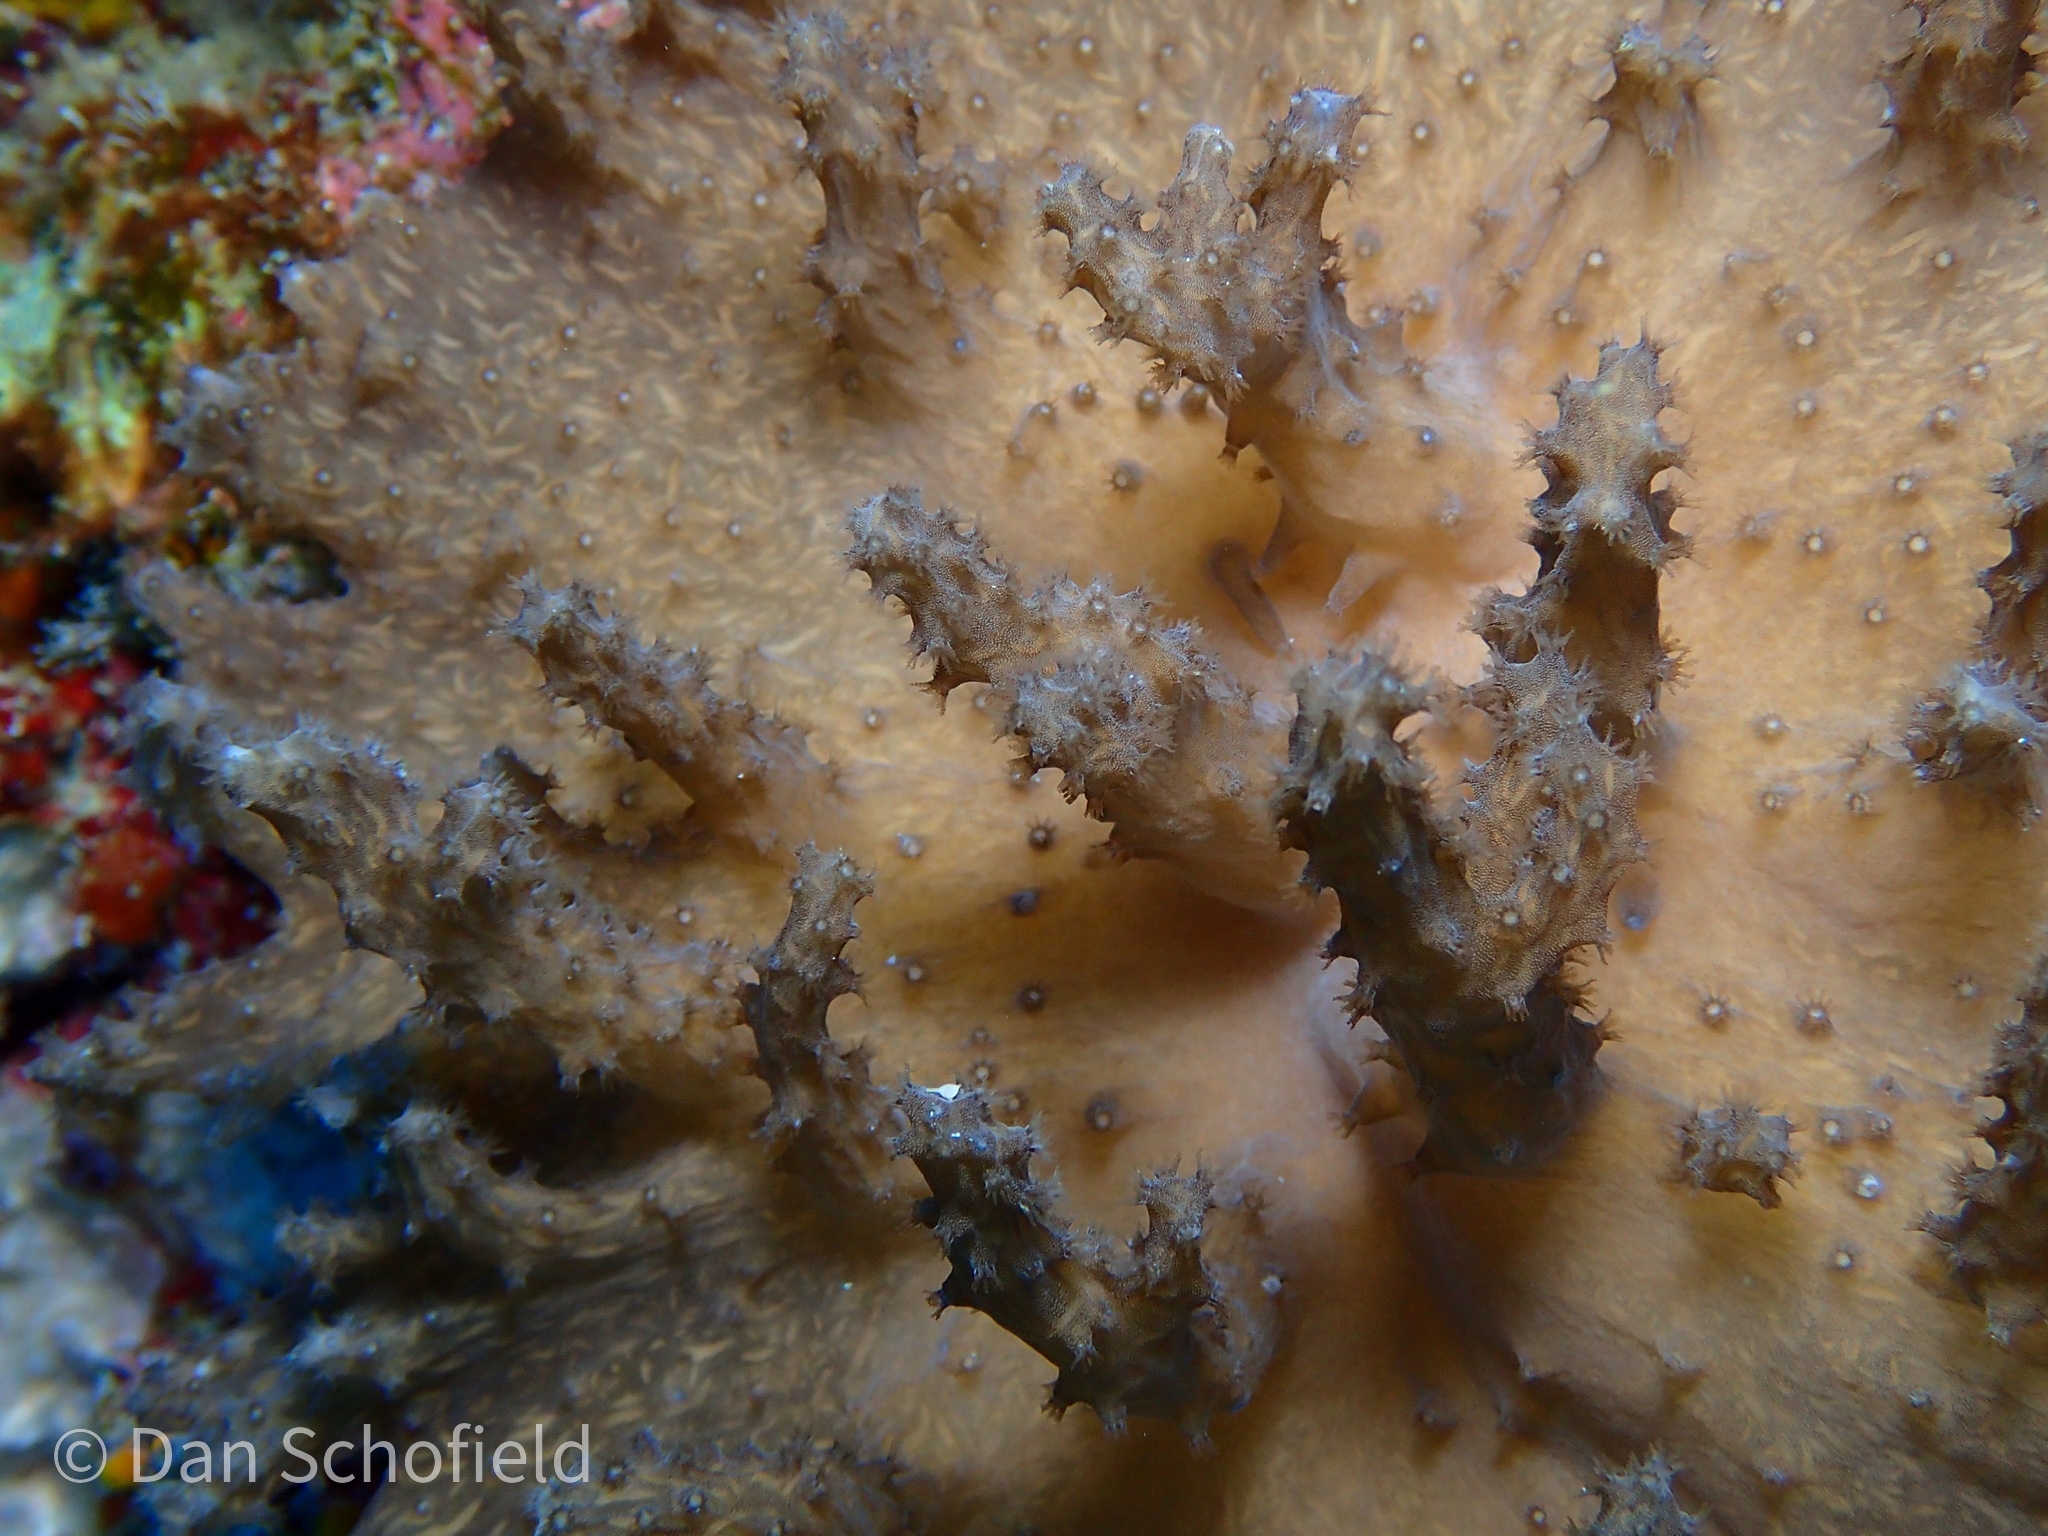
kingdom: Animalia
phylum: Cnidaria
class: Anthozoa
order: Malacalcyonacea
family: Sinulariidae
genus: Sinularia
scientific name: Sinularia brassica
